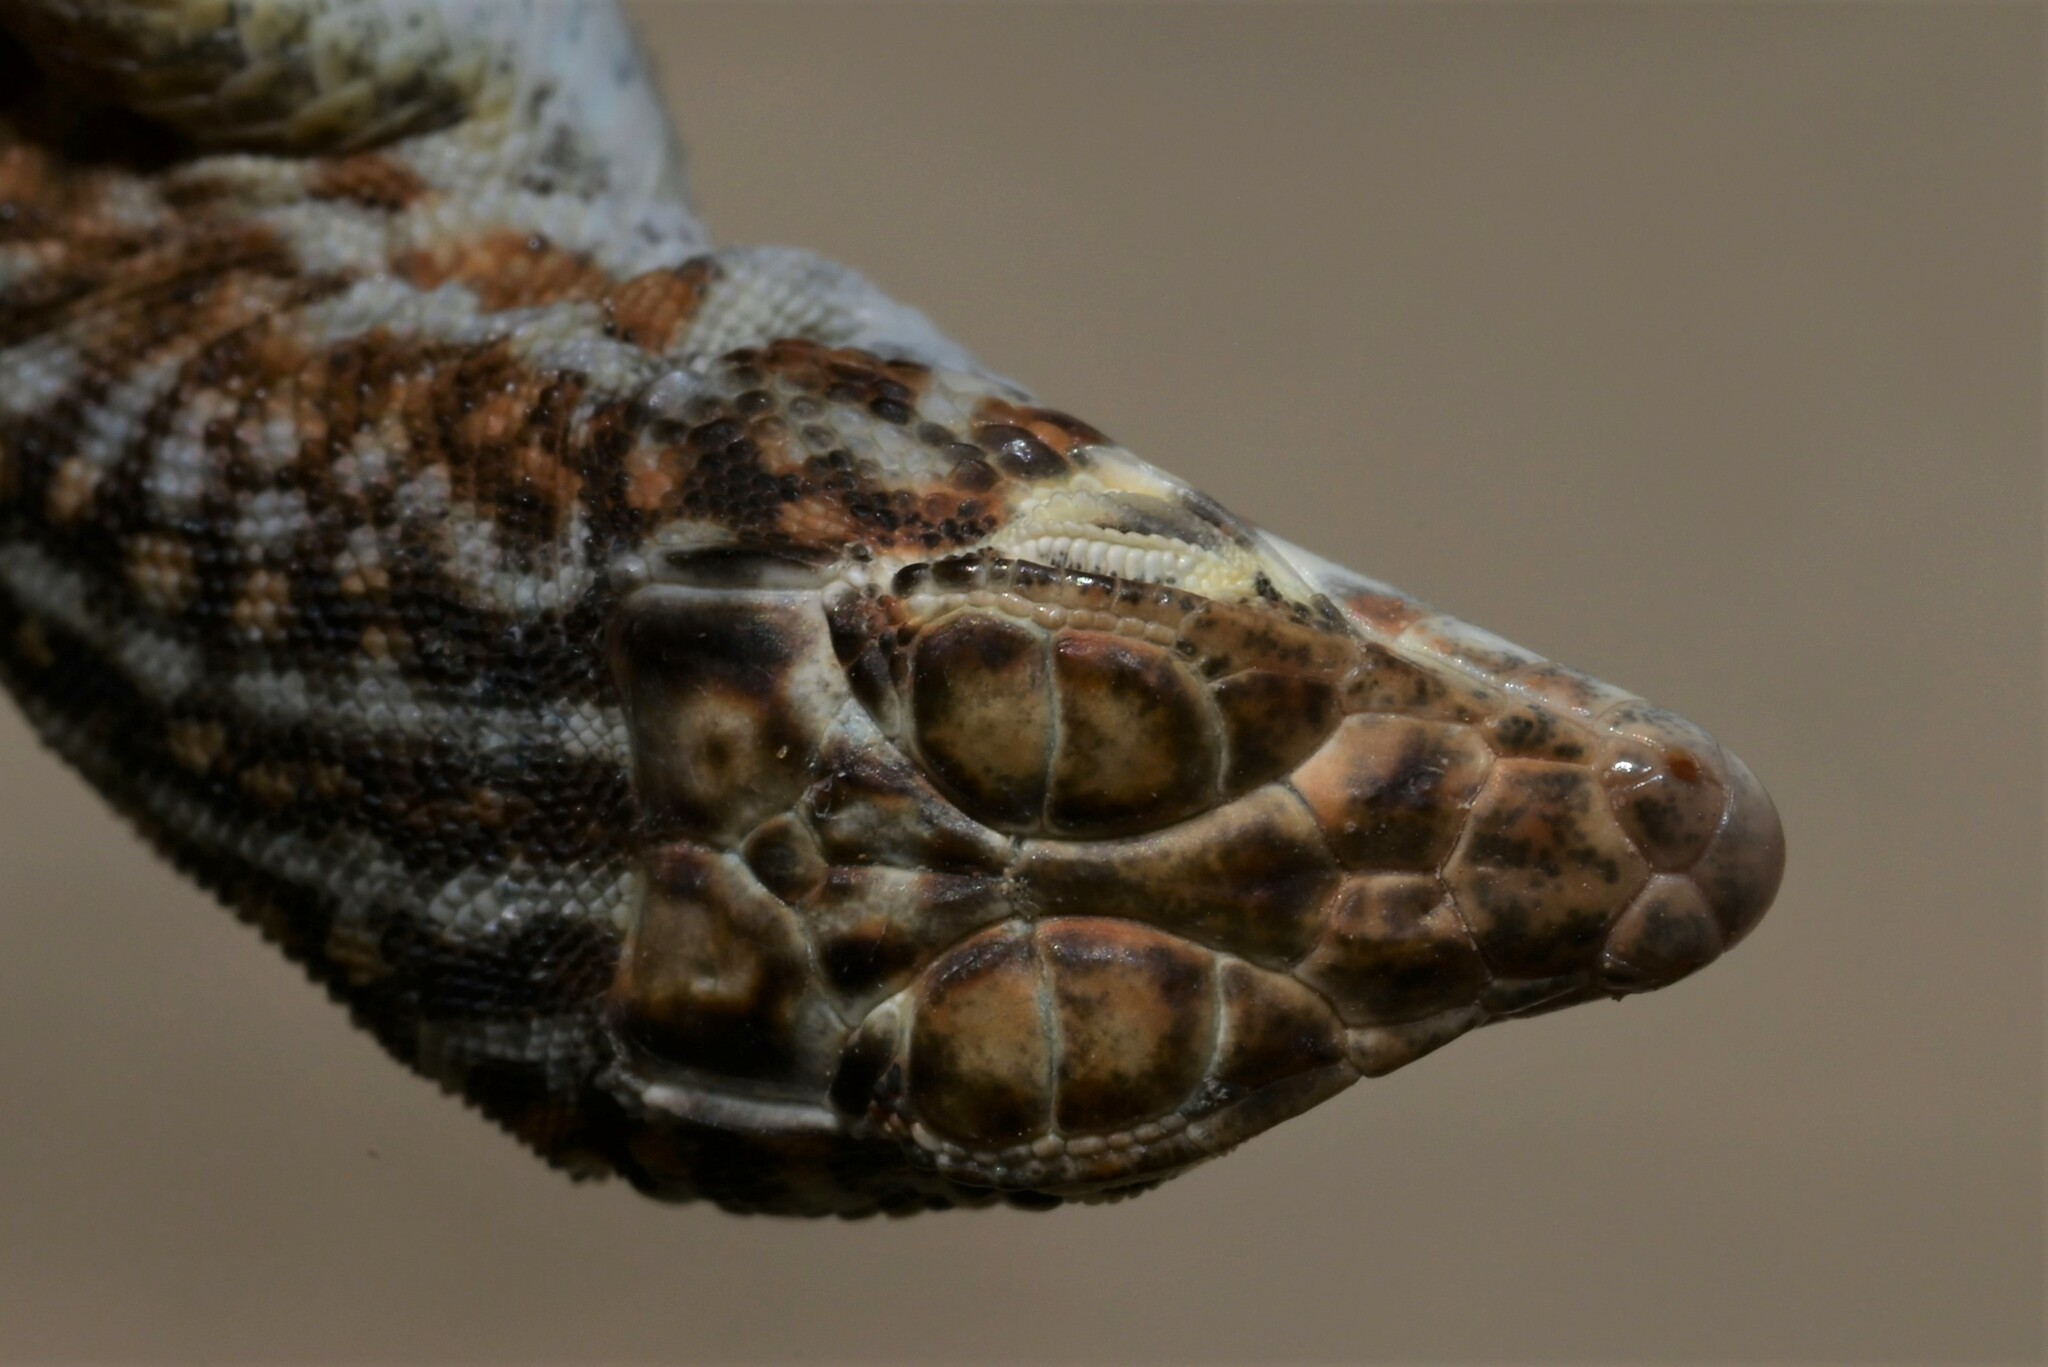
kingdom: Animalia
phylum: Chordata
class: Squamata
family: Lacertidae
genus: Acanthodactylus
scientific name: Acanthodactylus opheodurus
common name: Arnold's fringe-fingered lizard
